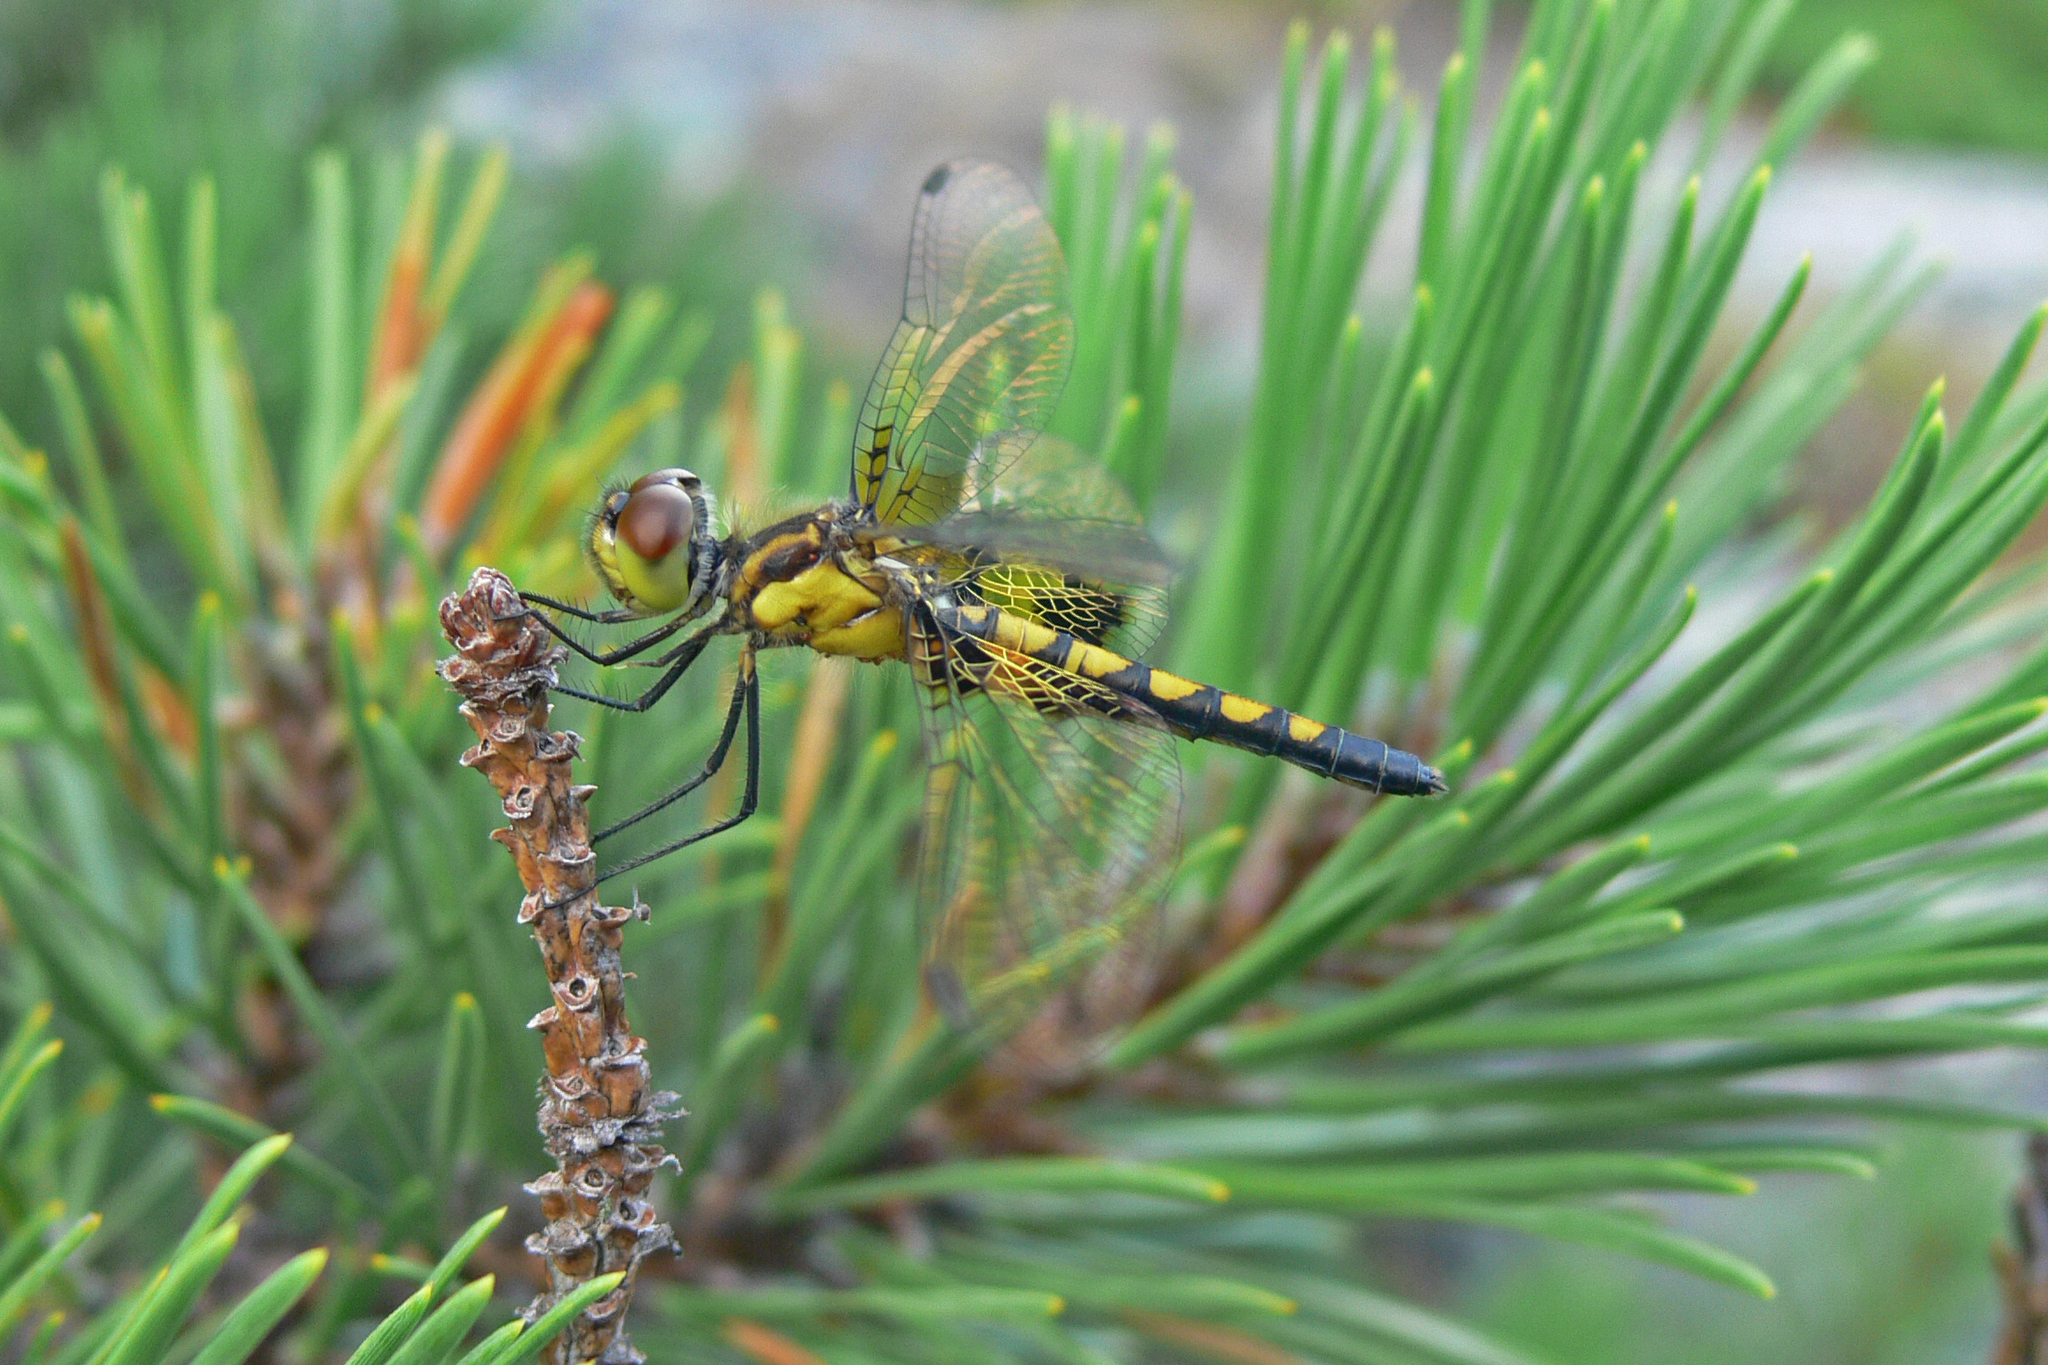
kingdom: Animalia
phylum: Arthropoda
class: Insecta
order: Odonata
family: Libellulidae
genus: Celithemis
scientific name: Celithemis martha
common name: Martha's pennant
